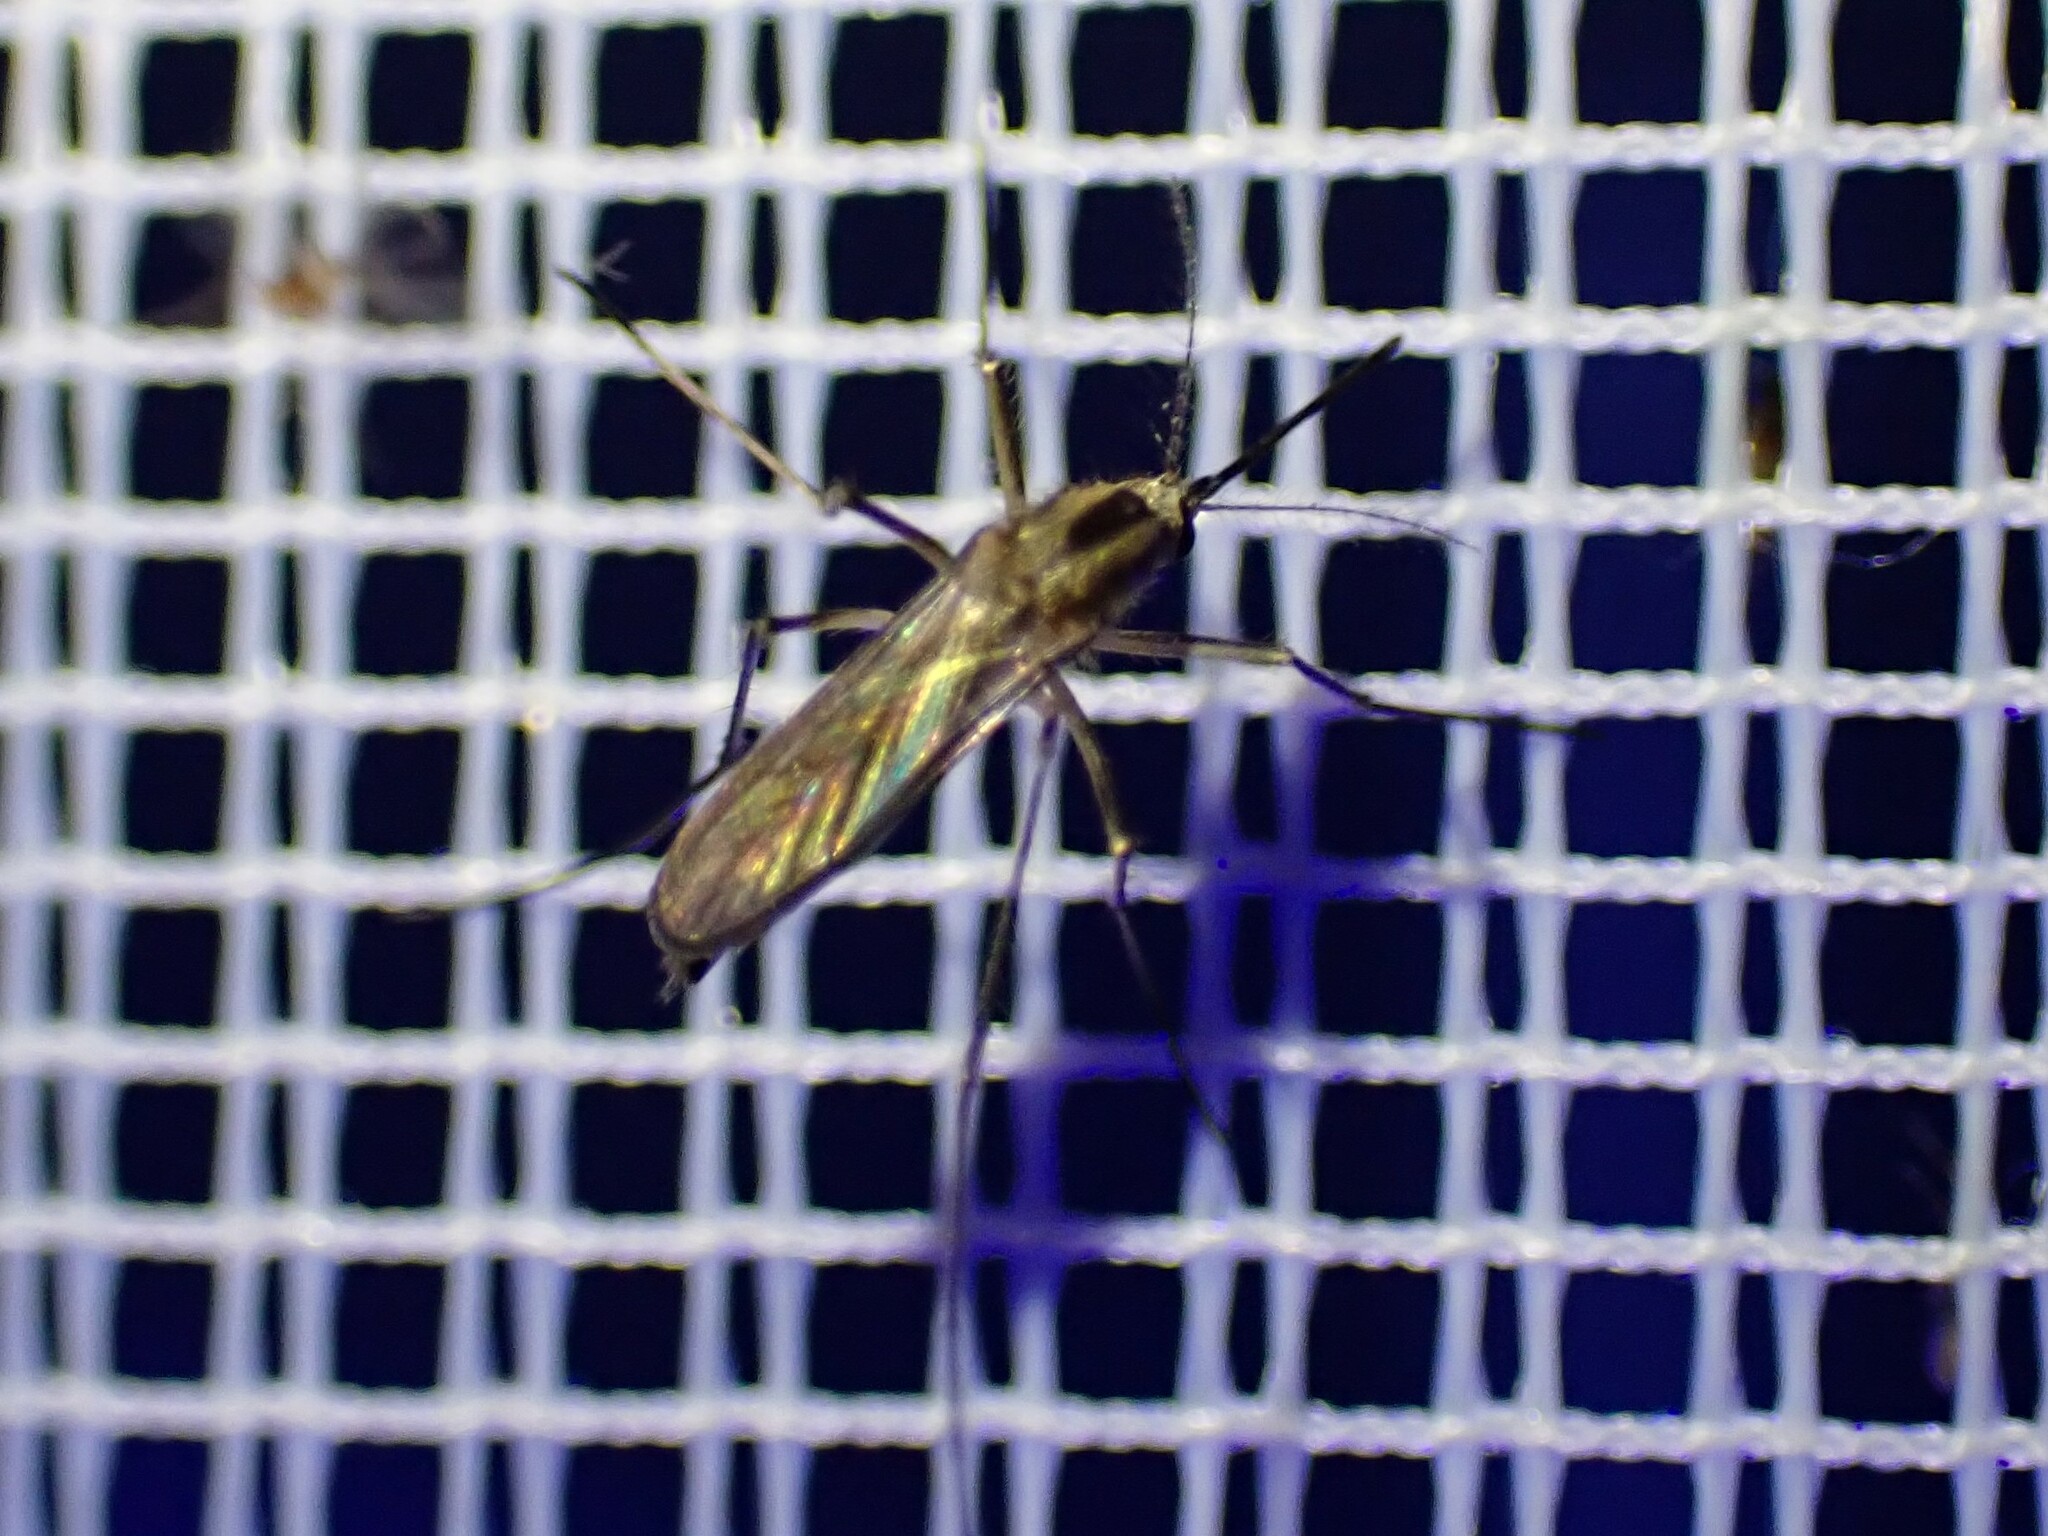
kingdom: Animalia
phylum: Arthropoda
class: Insecta
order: Diptera
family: Culicidae
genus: Aedes
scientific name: Aedes trivittatus
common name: Plains floodwater mosquito
